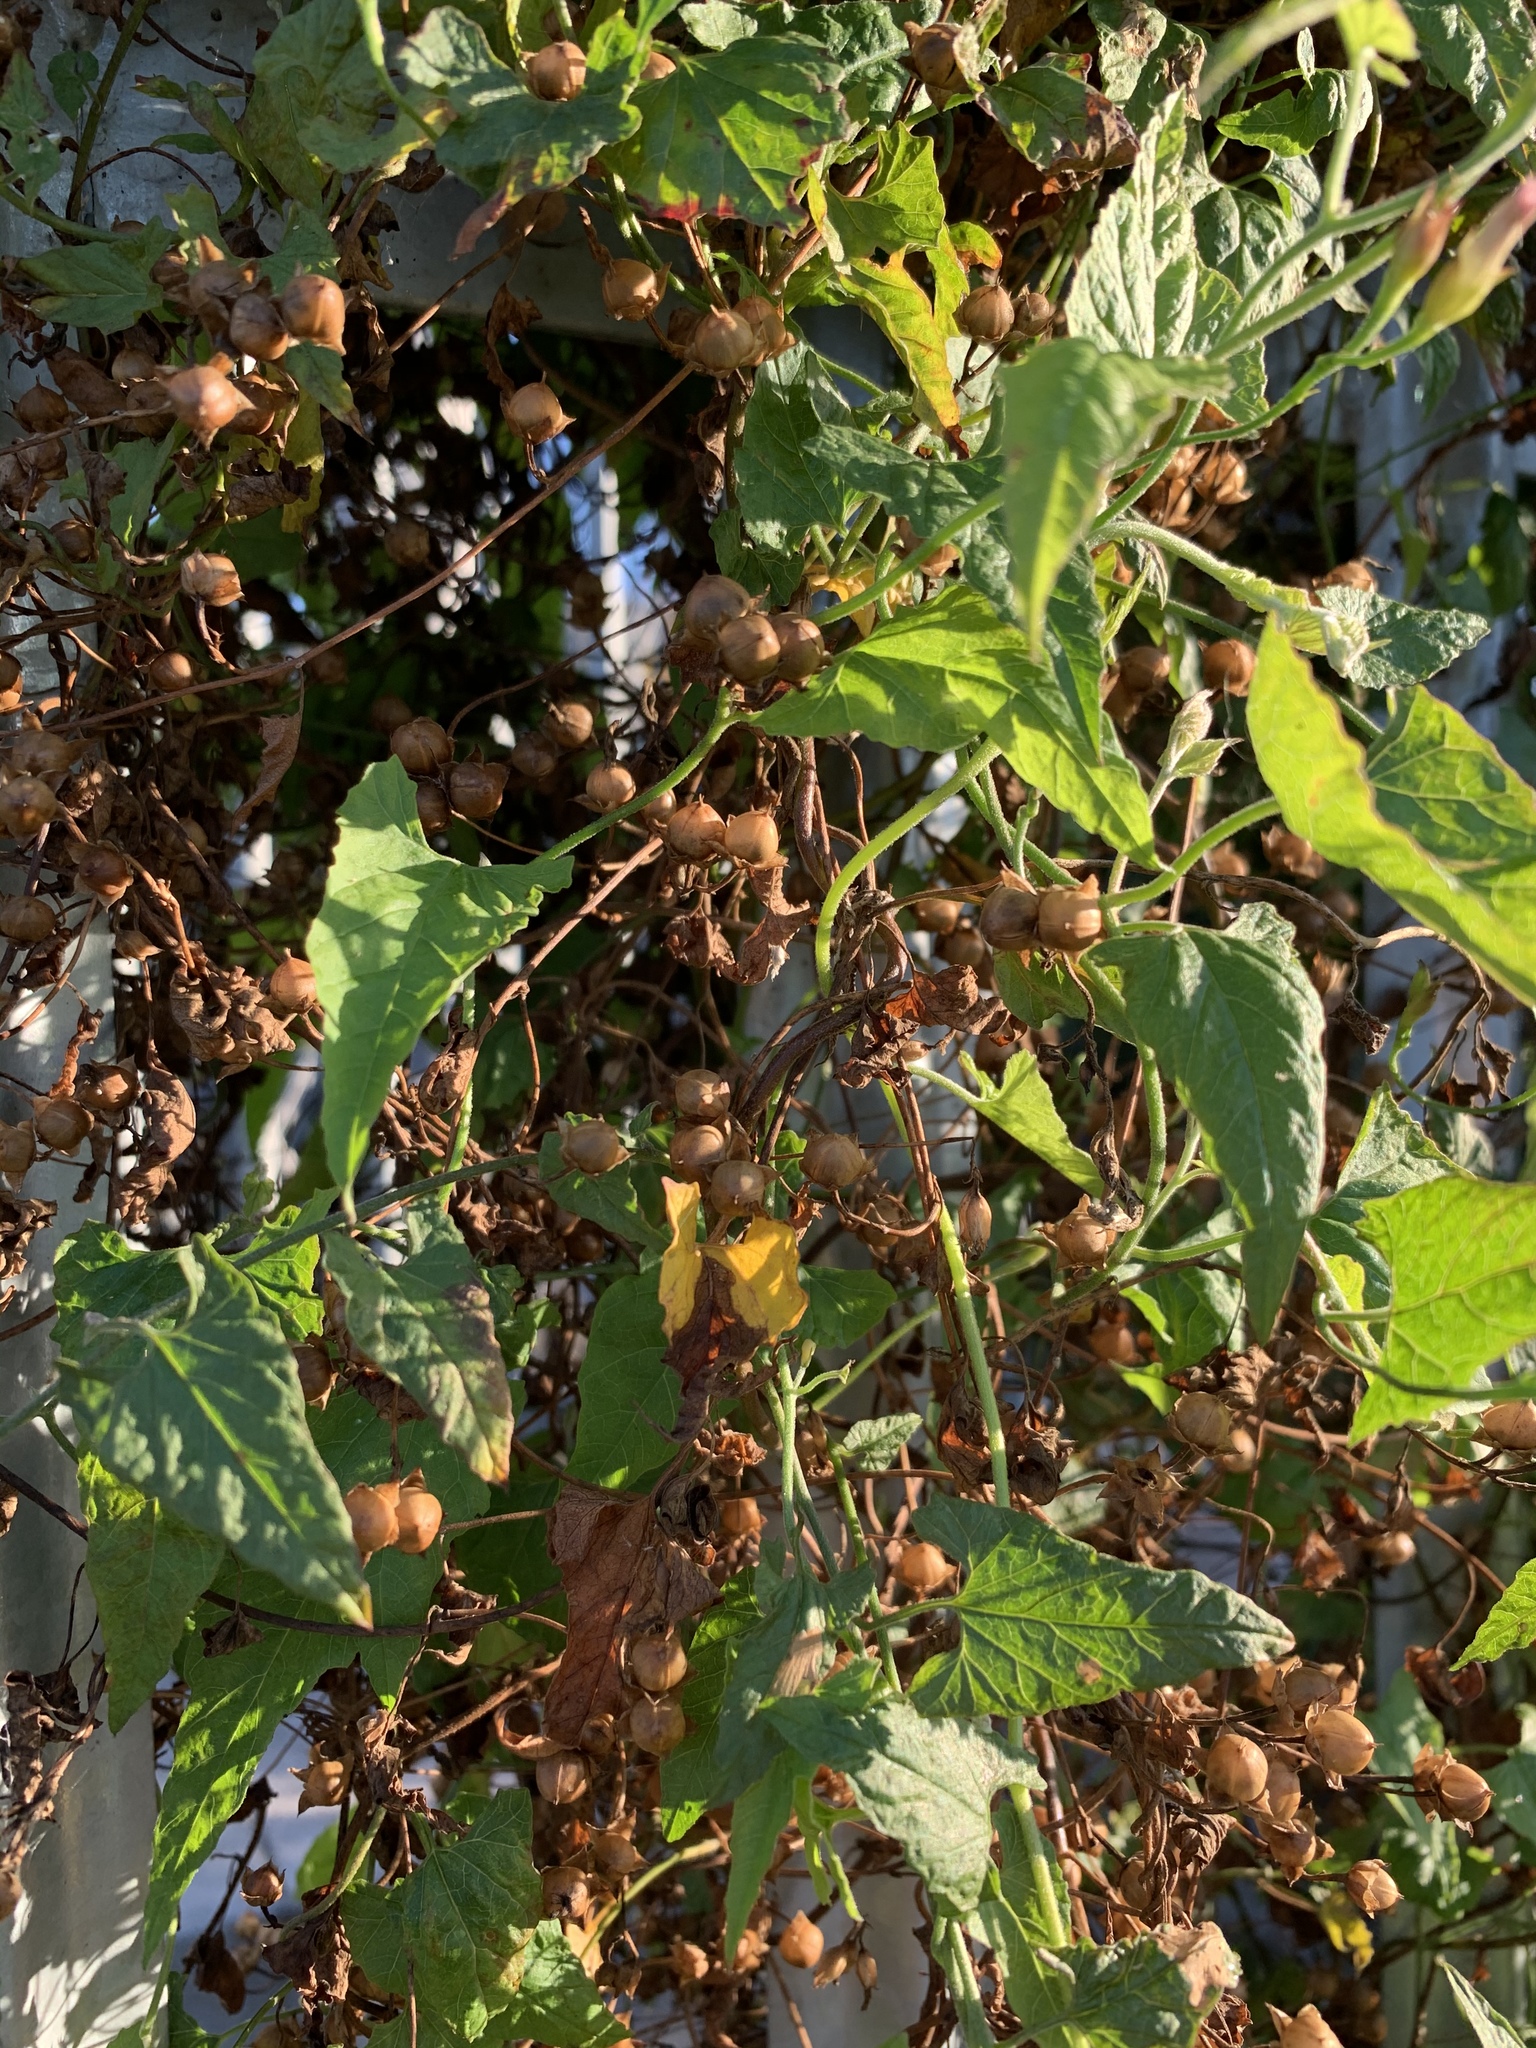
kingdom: Plantae
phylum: Tracheophyta
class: Magnoliopsida
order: Solanales
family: Convolvulaceae
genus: Convolvulus
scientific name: Convolvulus farinosus
